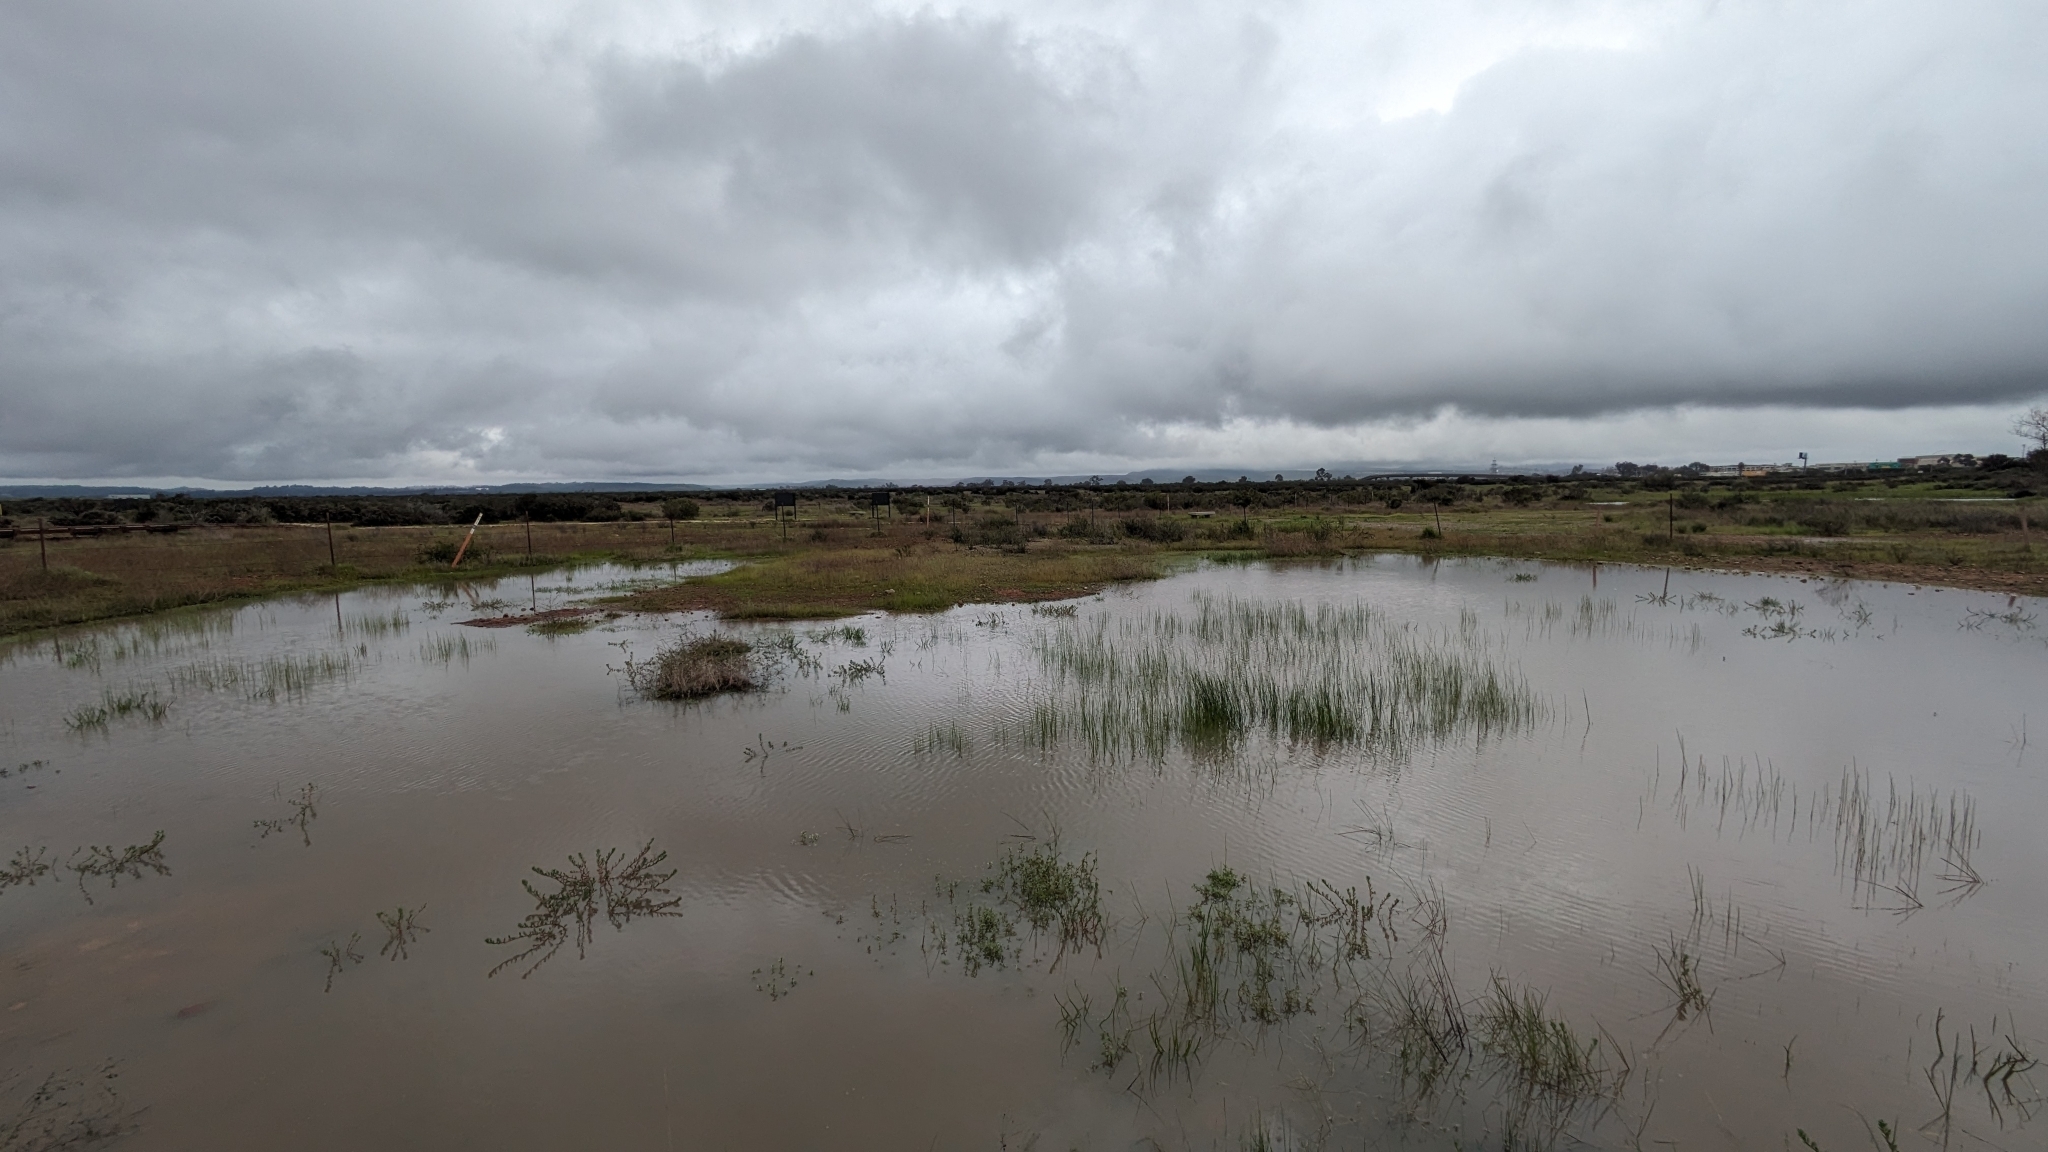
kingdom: Plantae
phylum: Tracheophyta
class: Magnoliopsida
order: Lamiales
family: Lamiaceae
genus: Pogogyne
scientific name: Pogogyne abramsii
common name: San diego mesa-mint
